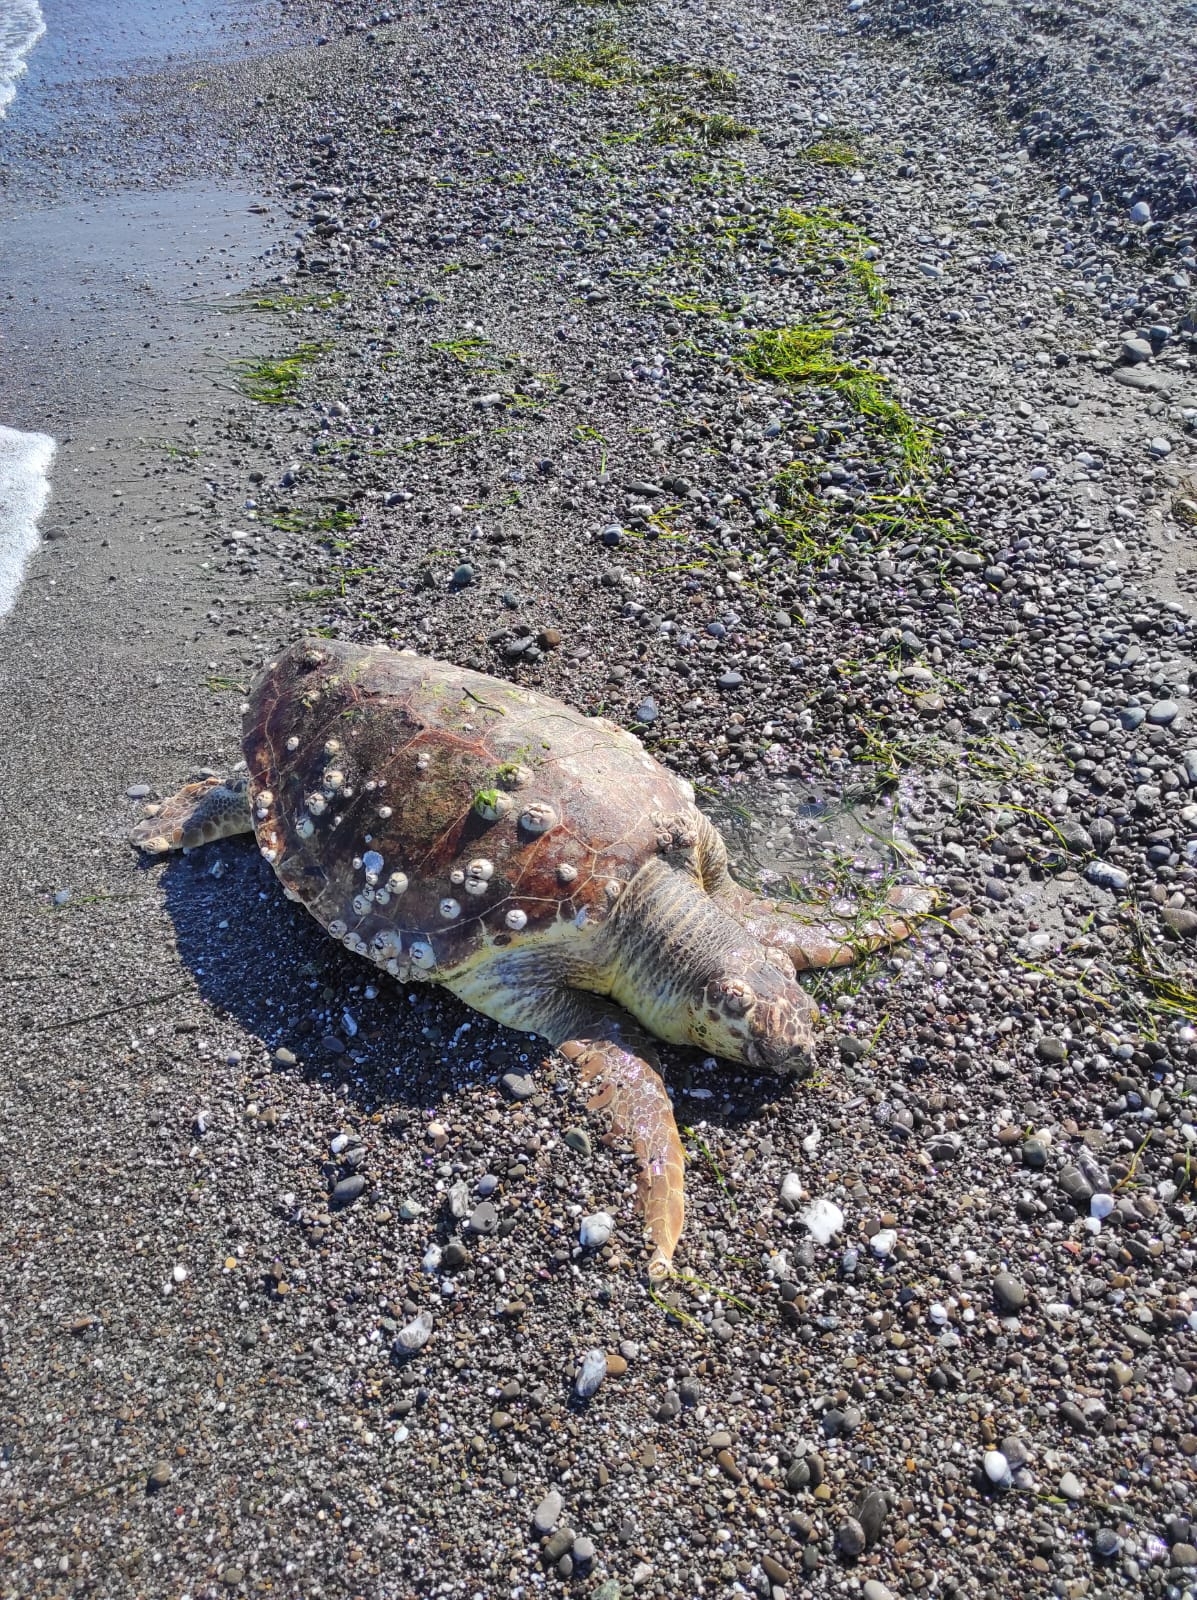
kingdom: Animalia
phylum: Chordata
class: Testudines
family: Cheloniidae
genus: Caretta
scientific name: Caretta caretta
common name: Loggerhead sea turtle
